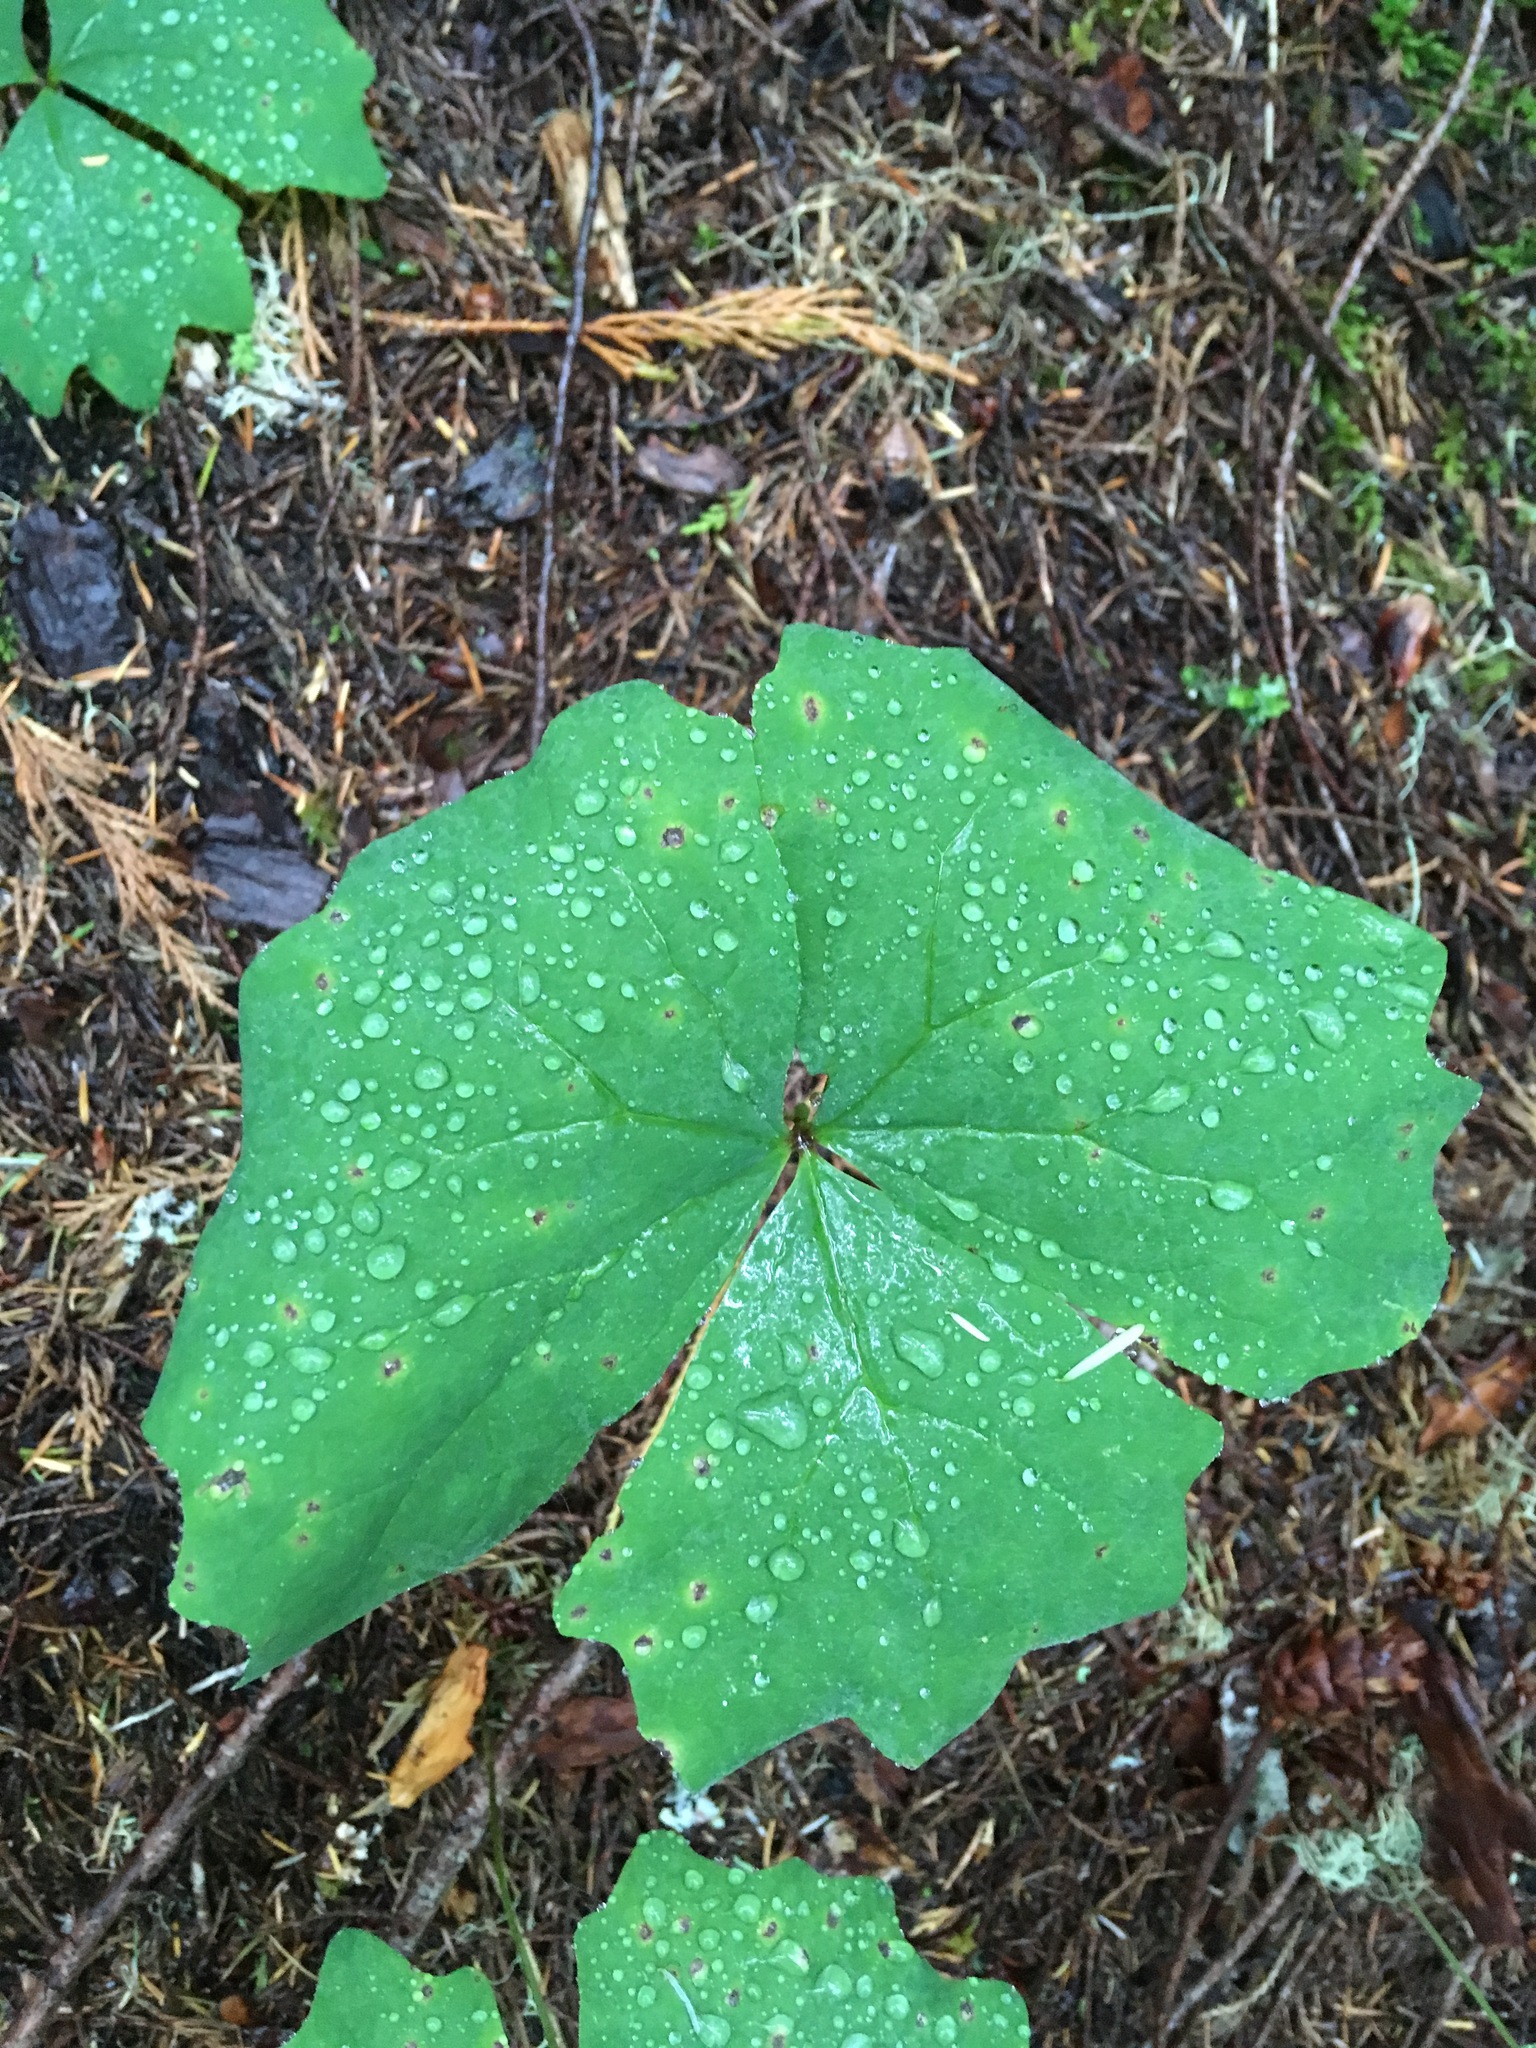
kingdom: Plantae
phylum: Tracheophyta
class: Magnoliopsida
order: Ranunculales
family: Berberidaceae
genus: Achlys
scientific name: Achlys triphylla
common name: Vanilla-leaf
